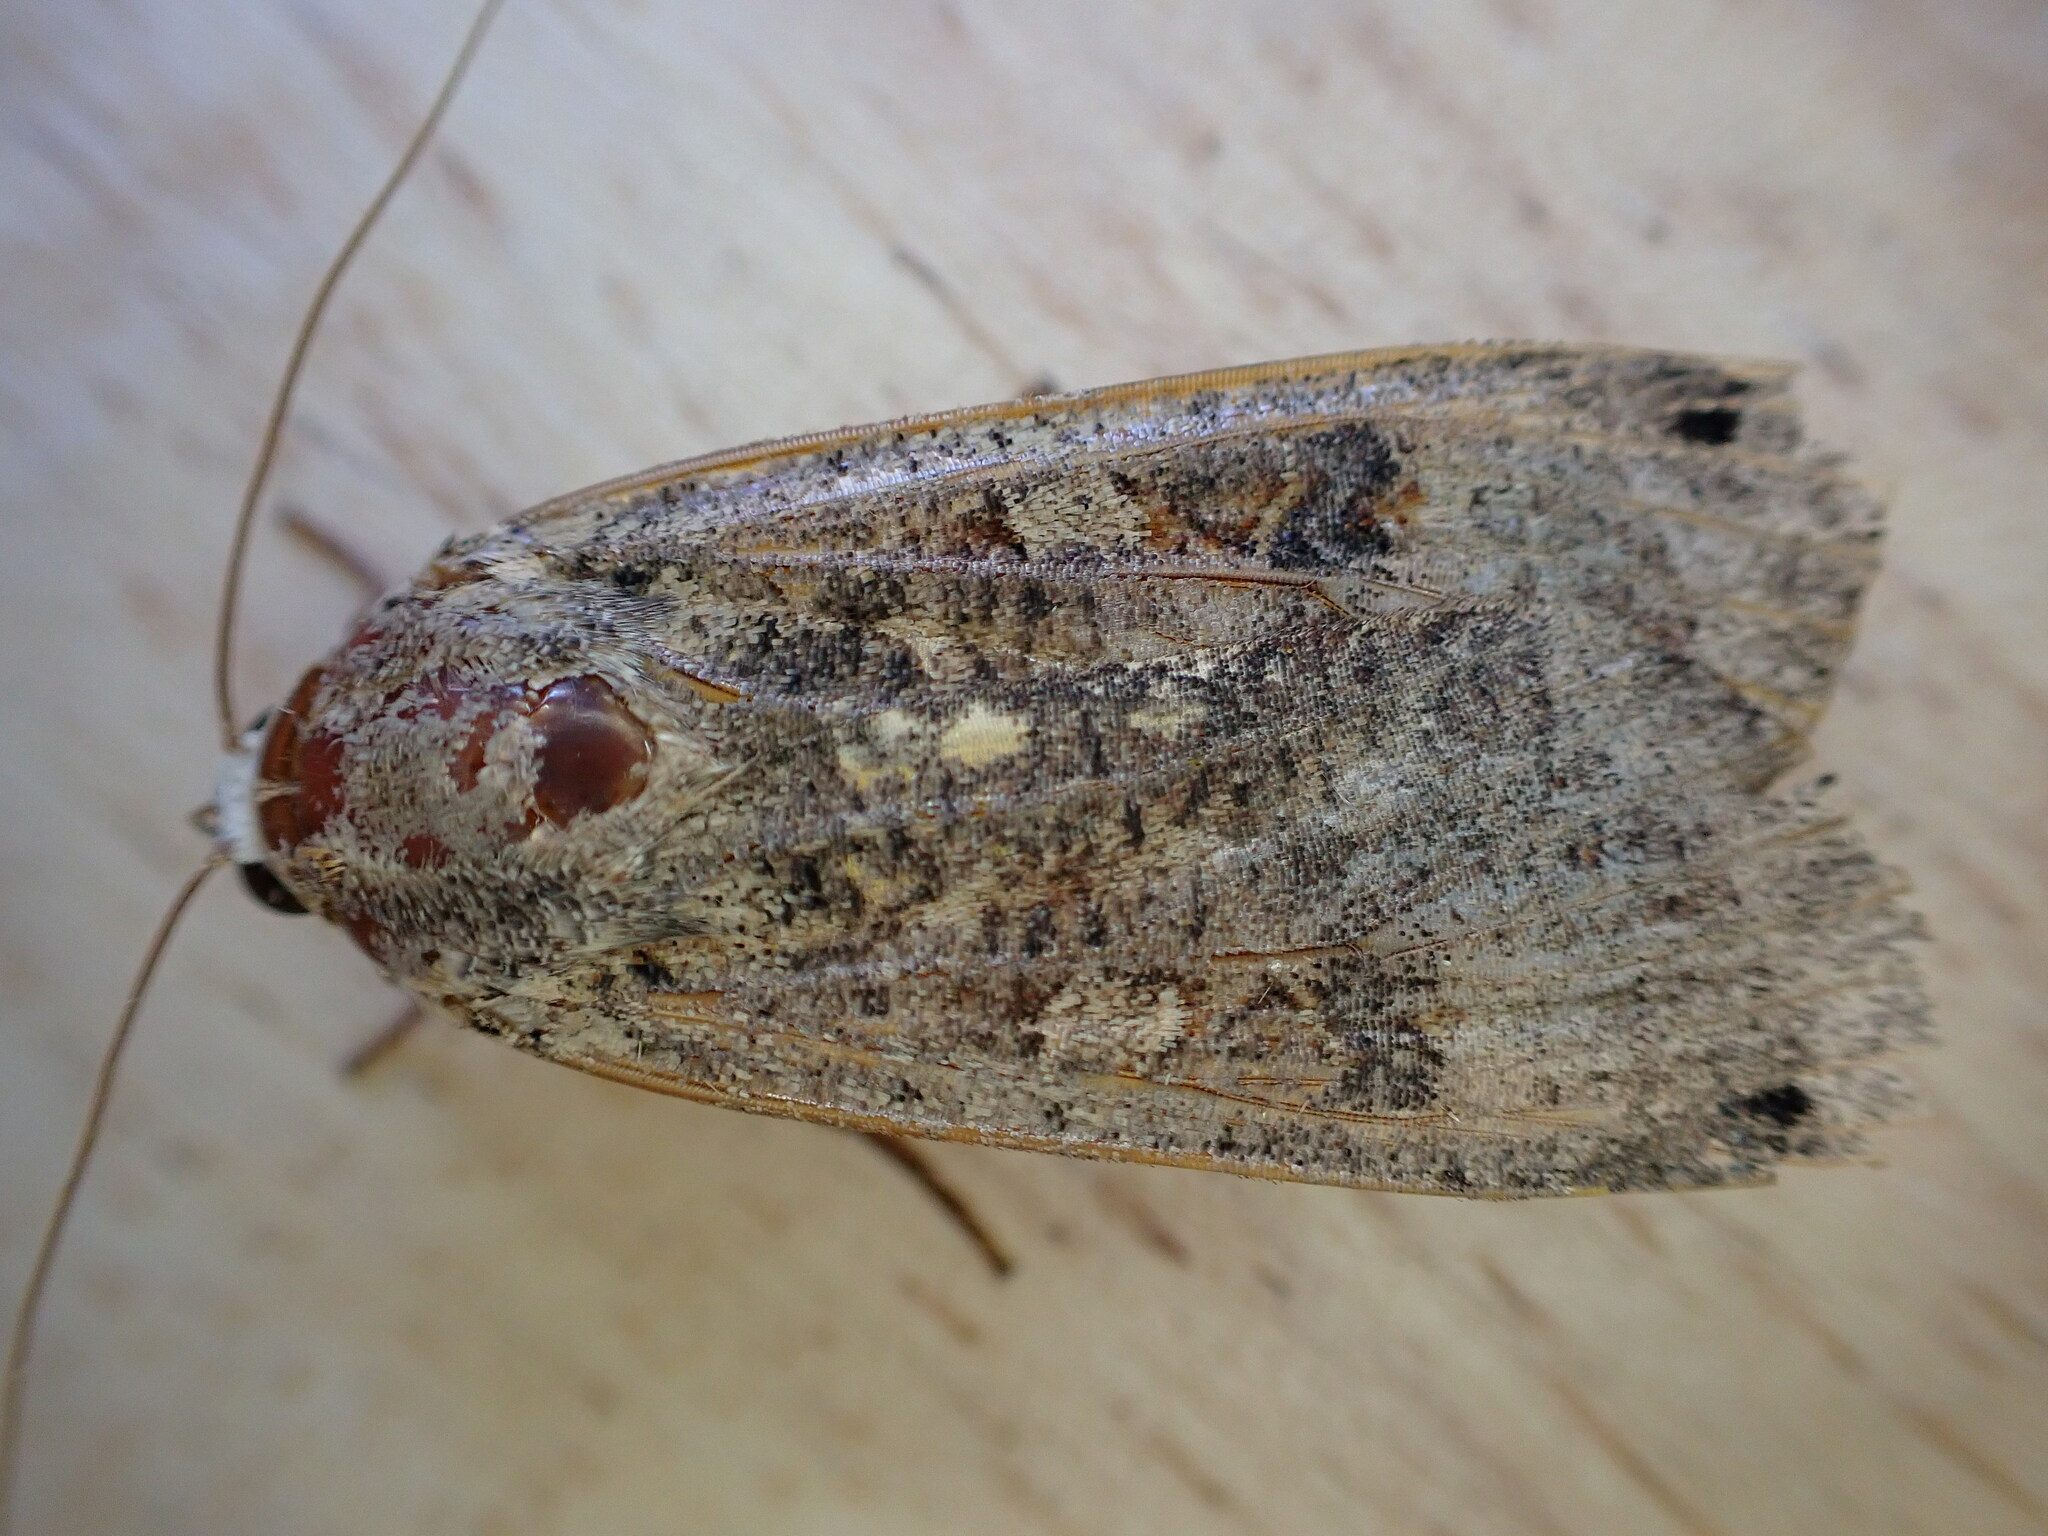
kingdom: Animalia
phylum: Arthropoda
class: Insecta
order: Lepidoptera
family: Noctuidae
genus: Noctua
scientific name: Noctua pronuba
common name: Large yellow underwing
